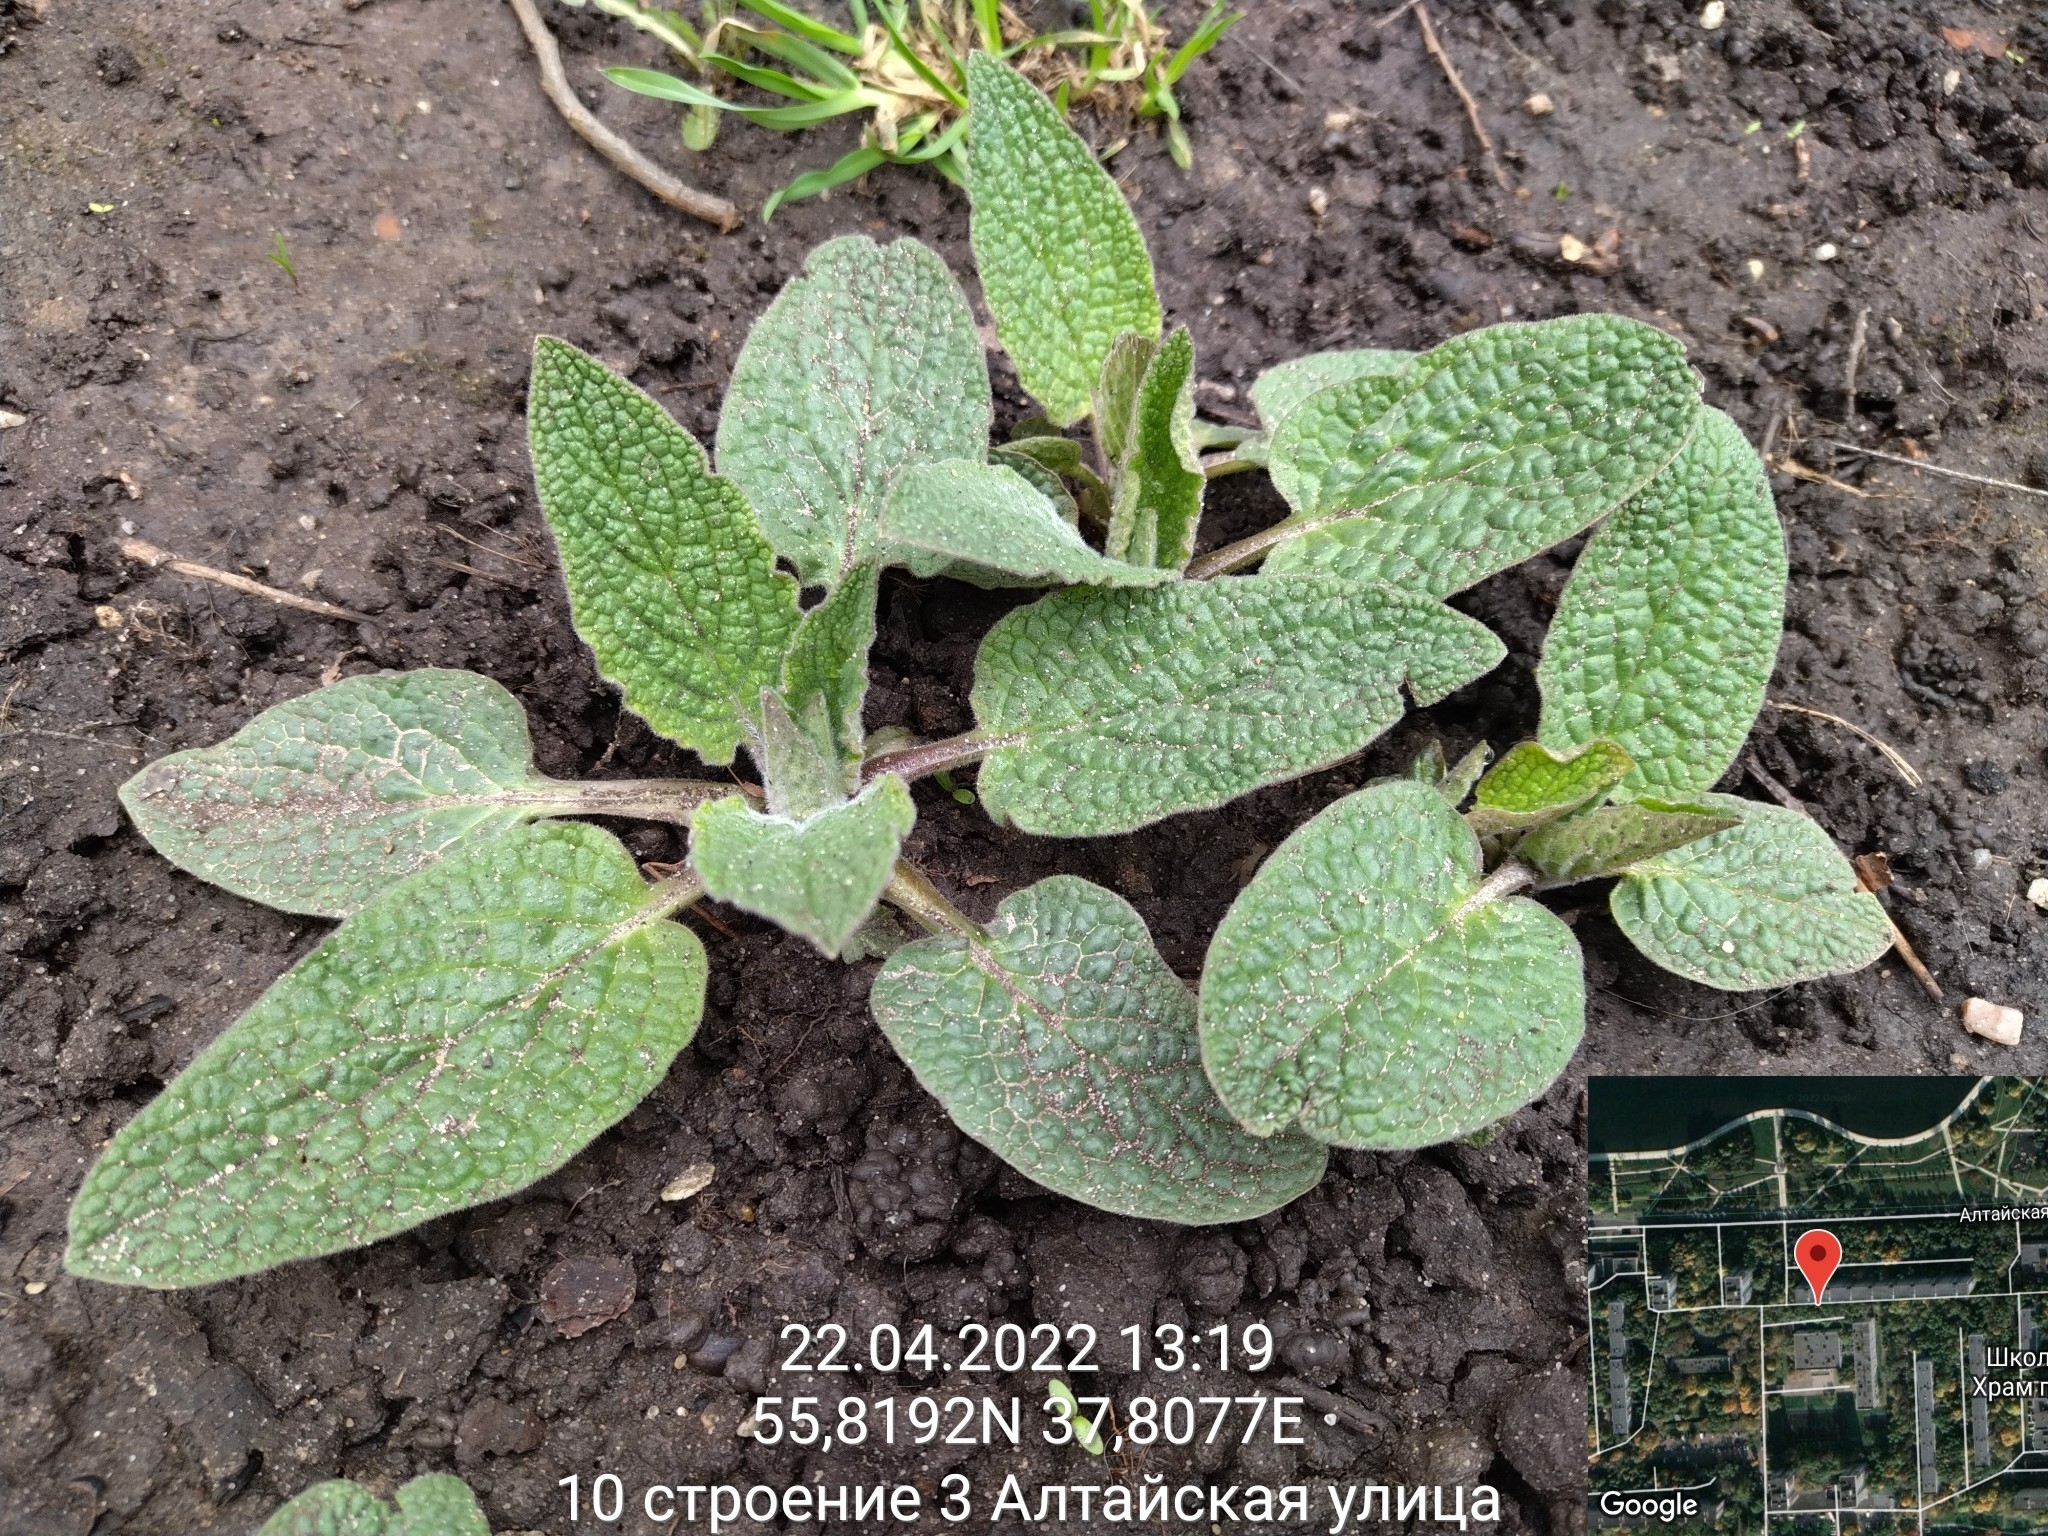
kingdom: Plantae
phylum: Tracheophyta
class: Magnoliopsida
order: Boraginales
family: Boraginaceae
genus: Symphytum
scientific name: Symphytum caucasicum
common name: Caucasian comfrey
